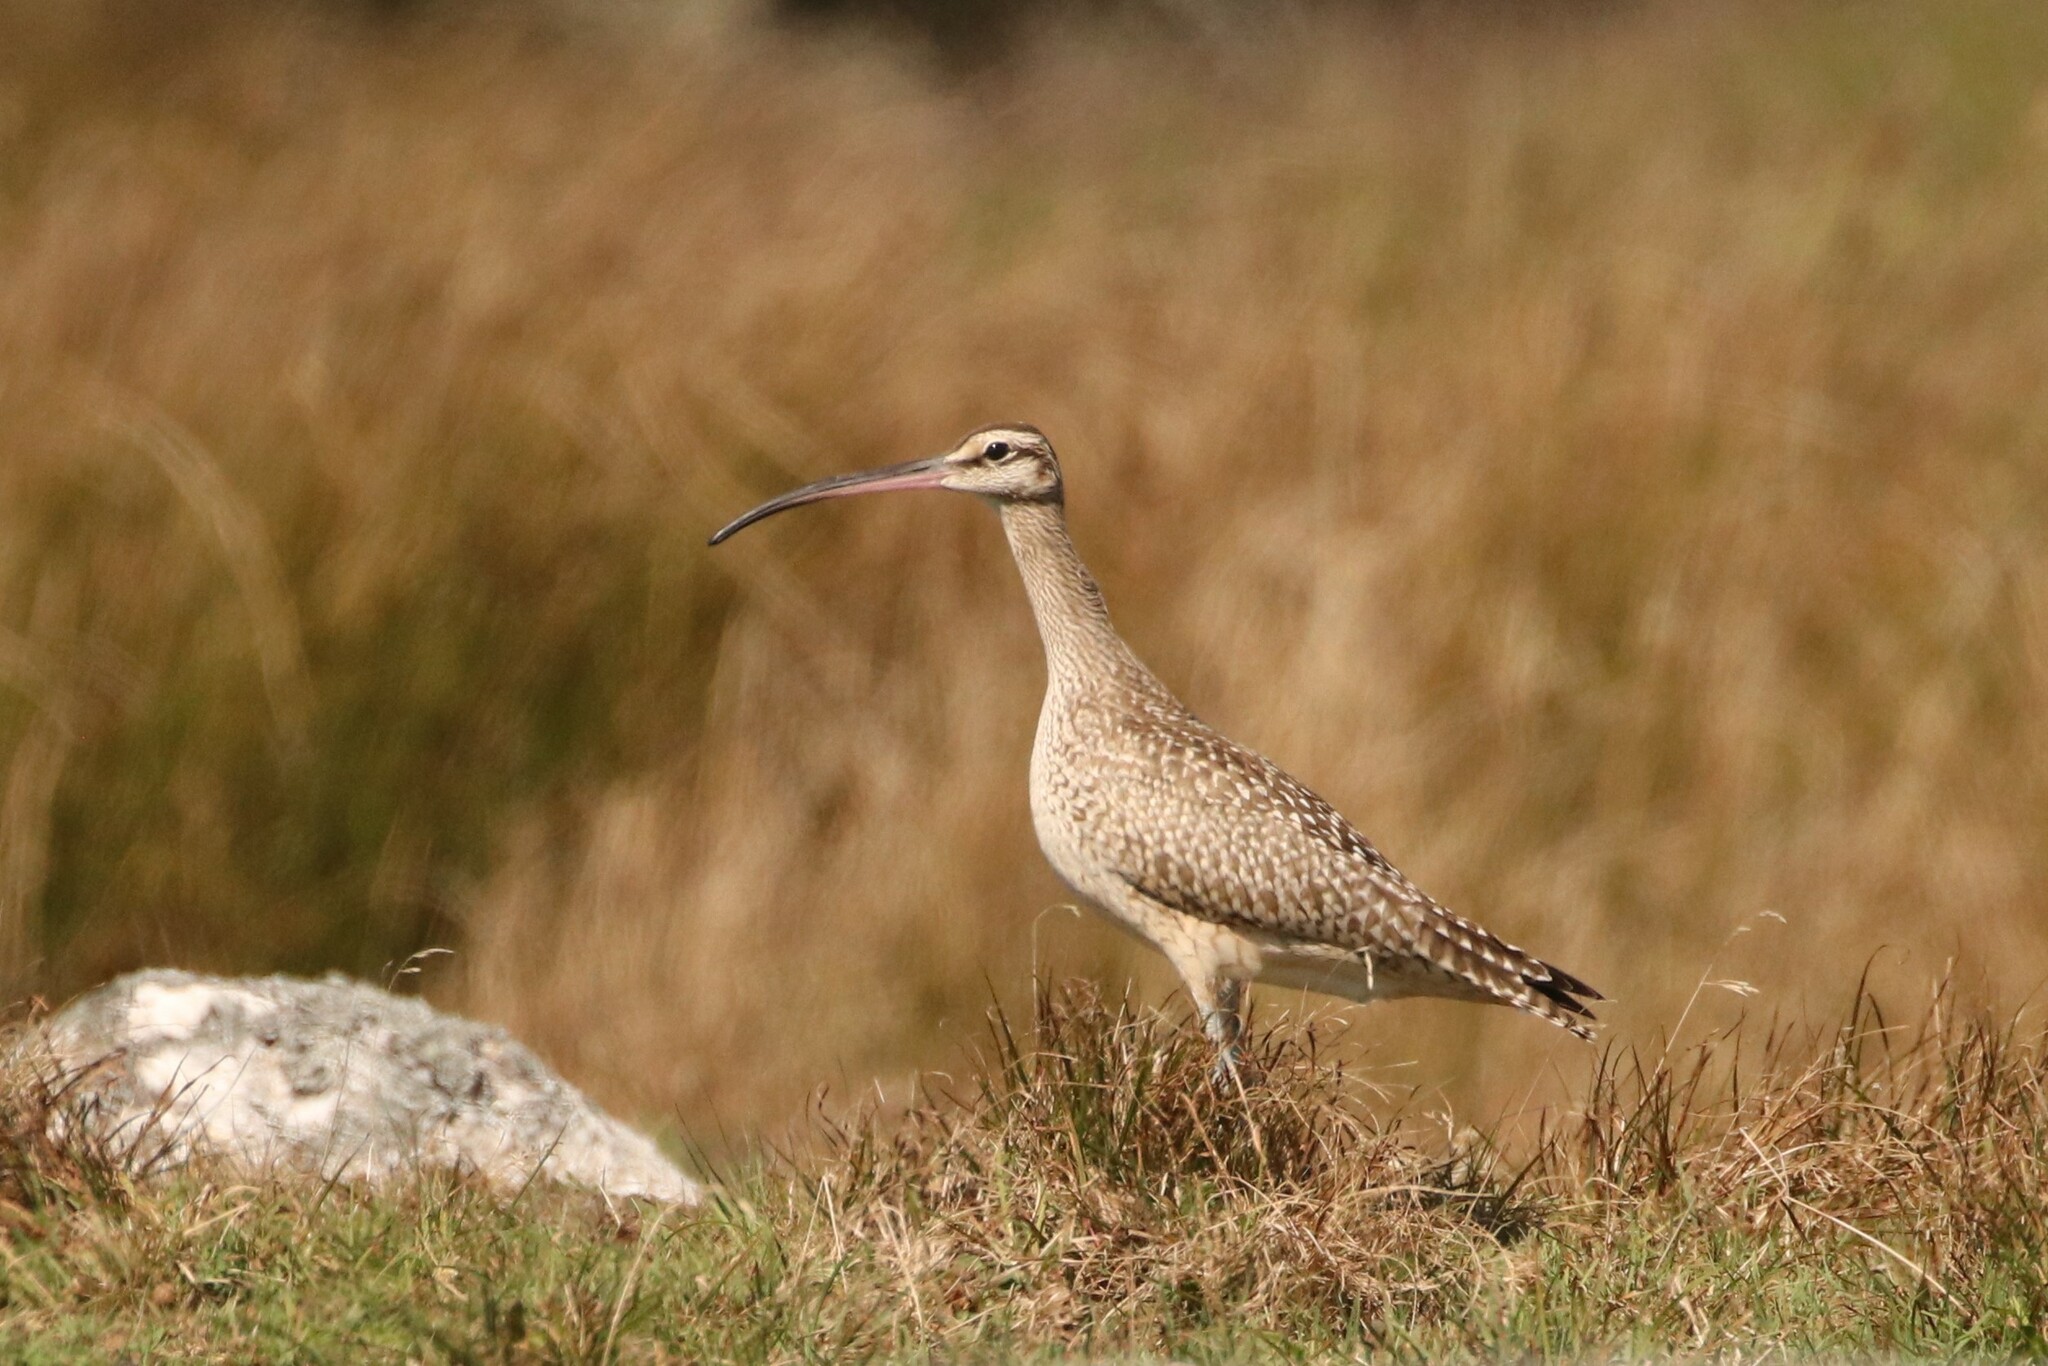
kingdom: Animalia
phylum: Chordata
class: Aves
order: Charadriiformes
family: Scolopacidae
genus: Numenius
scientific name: Numenius phaeopus
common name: Whimbrel
